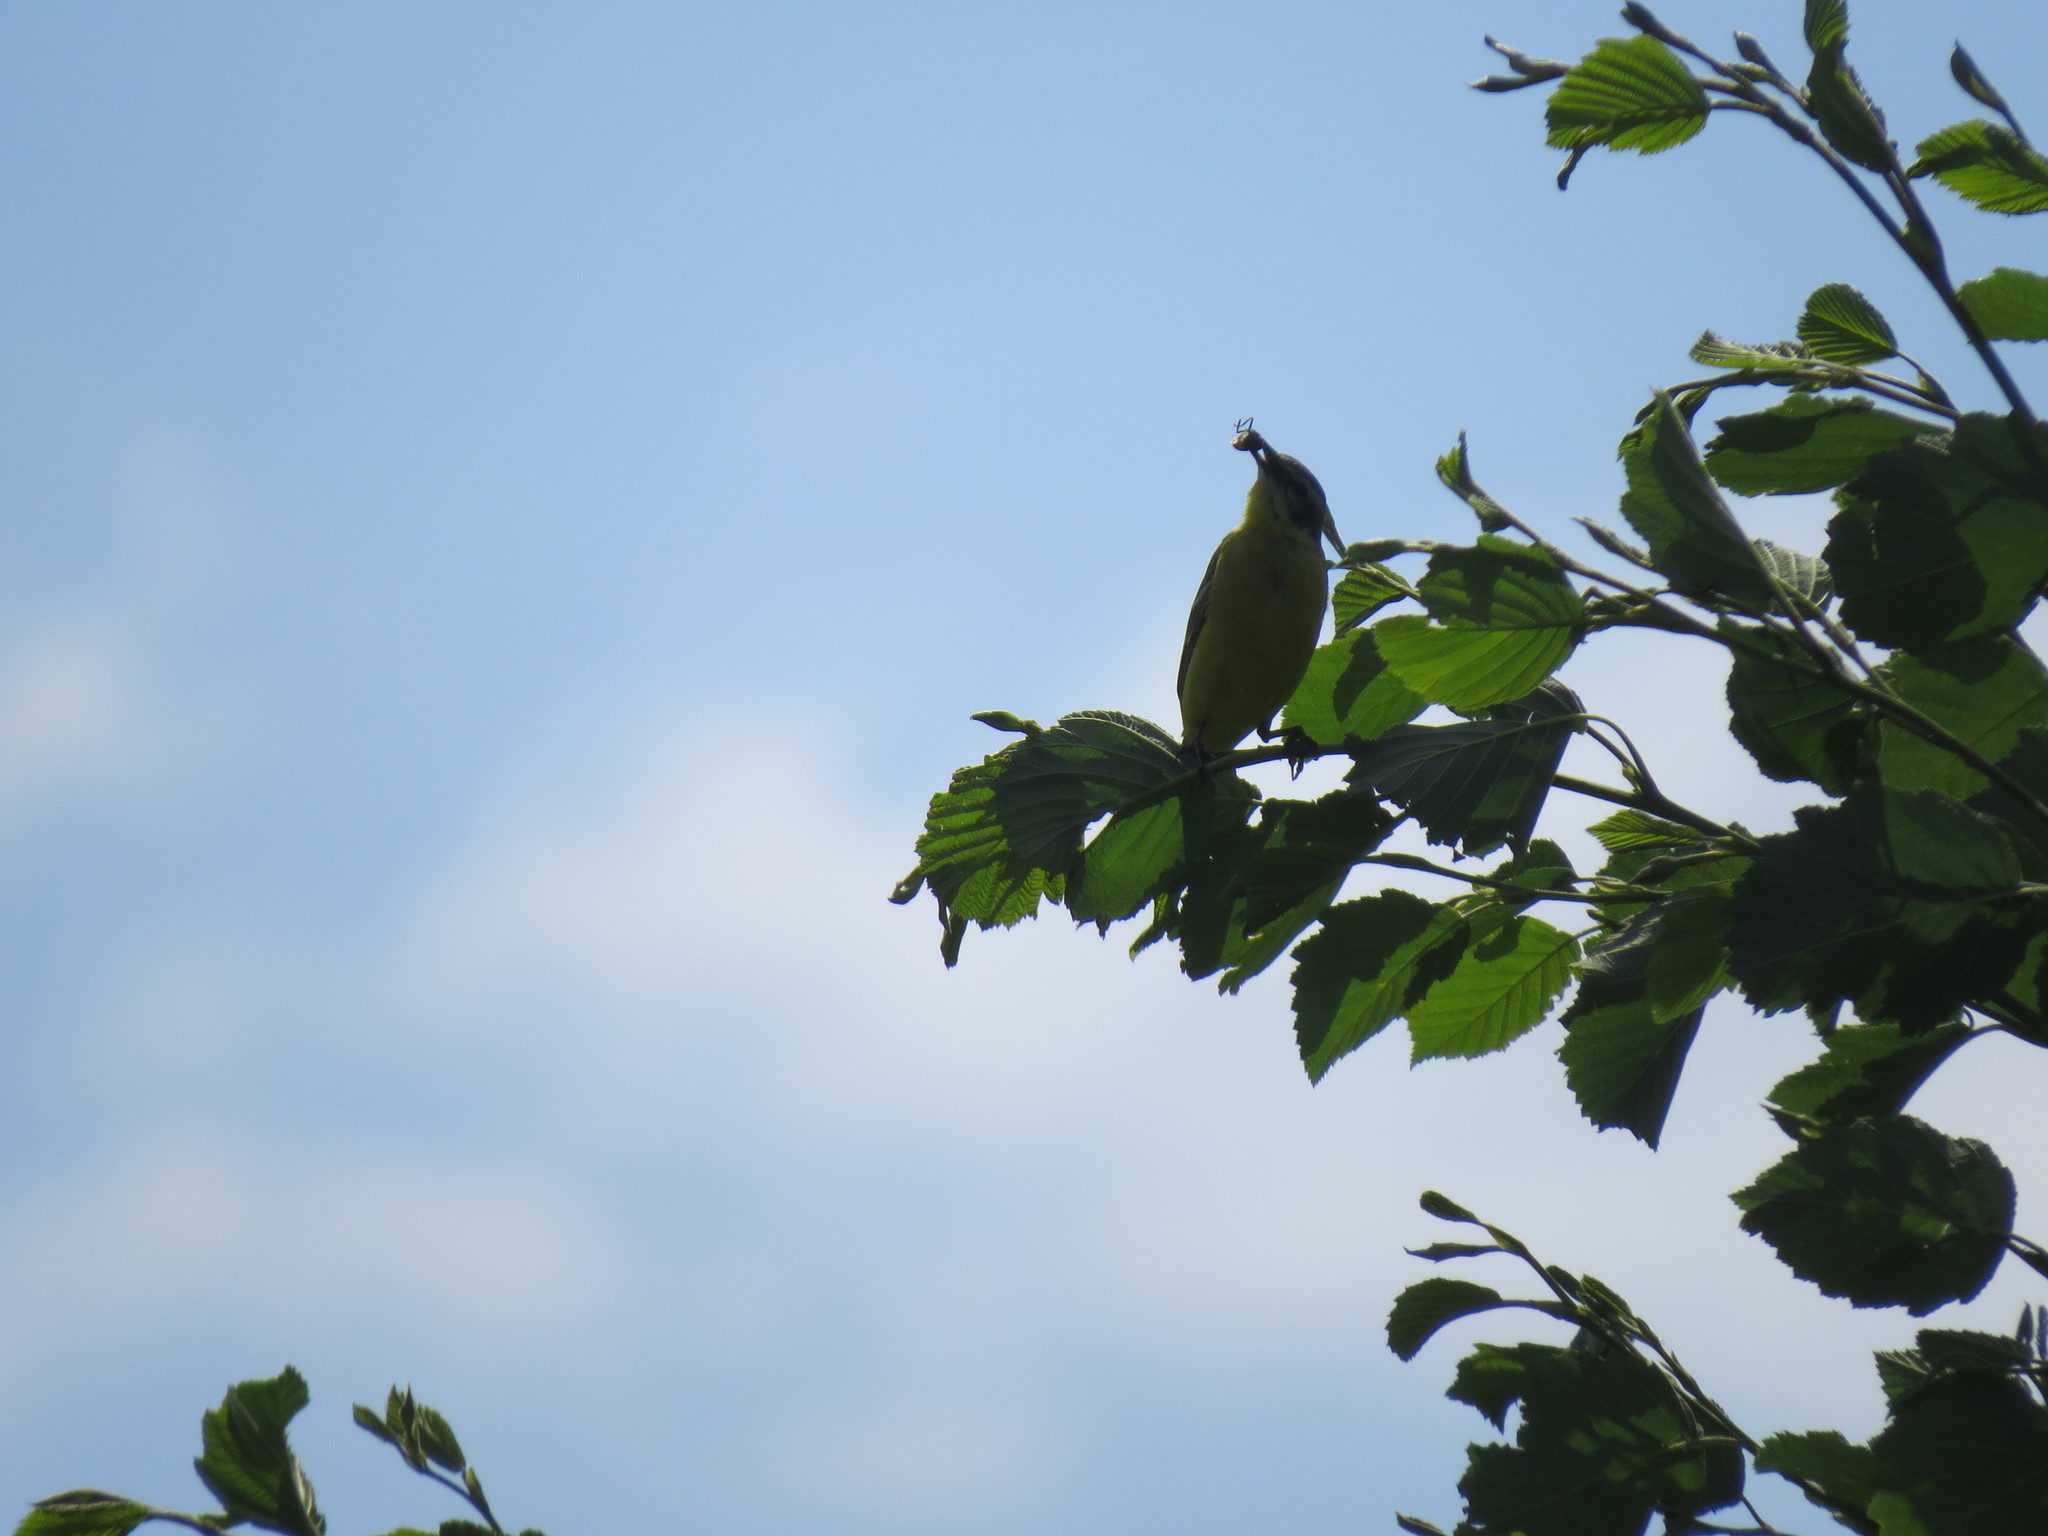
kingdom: Animalia
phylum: Chordata
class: Aves
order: Passeriformes
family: Motacillidae
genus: Motacilla
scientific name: Motacilla flava
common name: Western yellow wagtail
